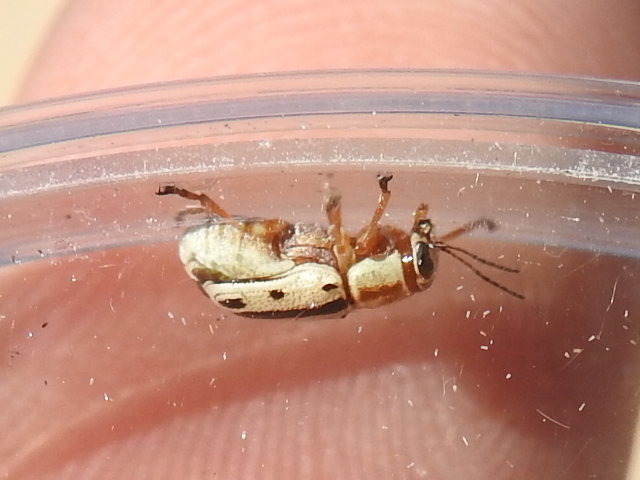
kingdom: Animalia
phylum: Arthropoda
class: Insecta
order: Coleoptera
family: Chrysomelidae
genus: Pachybrachis
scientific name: Pachybrachis bivittatus
